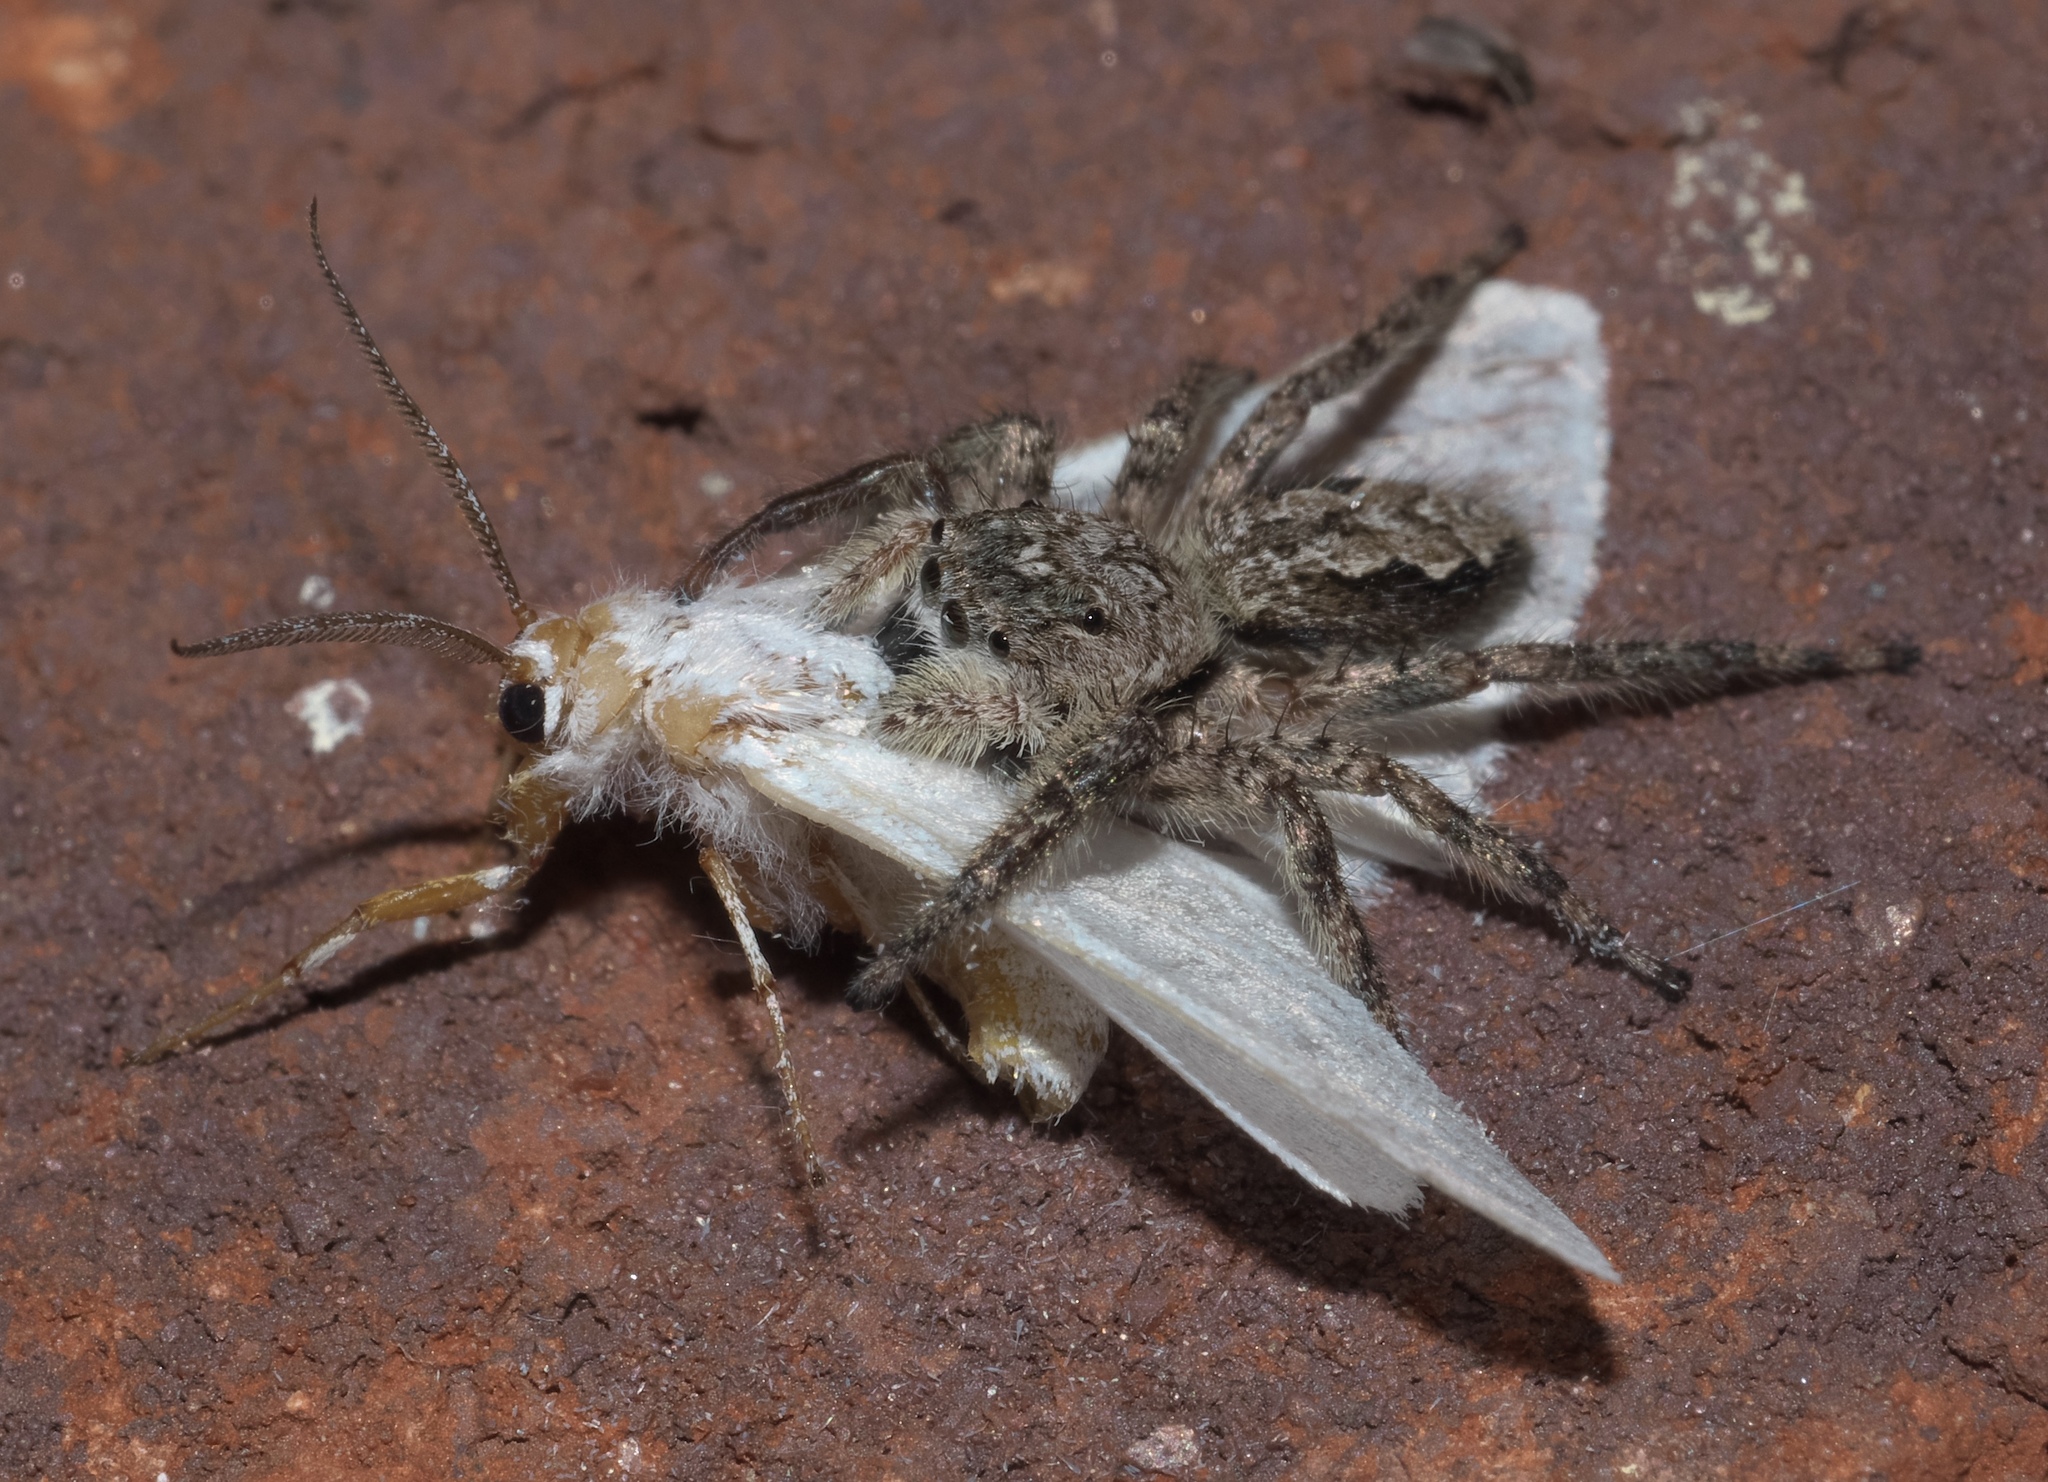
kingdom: Animalia
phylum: Arthropoda
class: Arachnida
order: Araneae
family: Salticidae
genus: Platycryptus
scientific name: Platycryptus undatus
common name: Tan jumping spider
